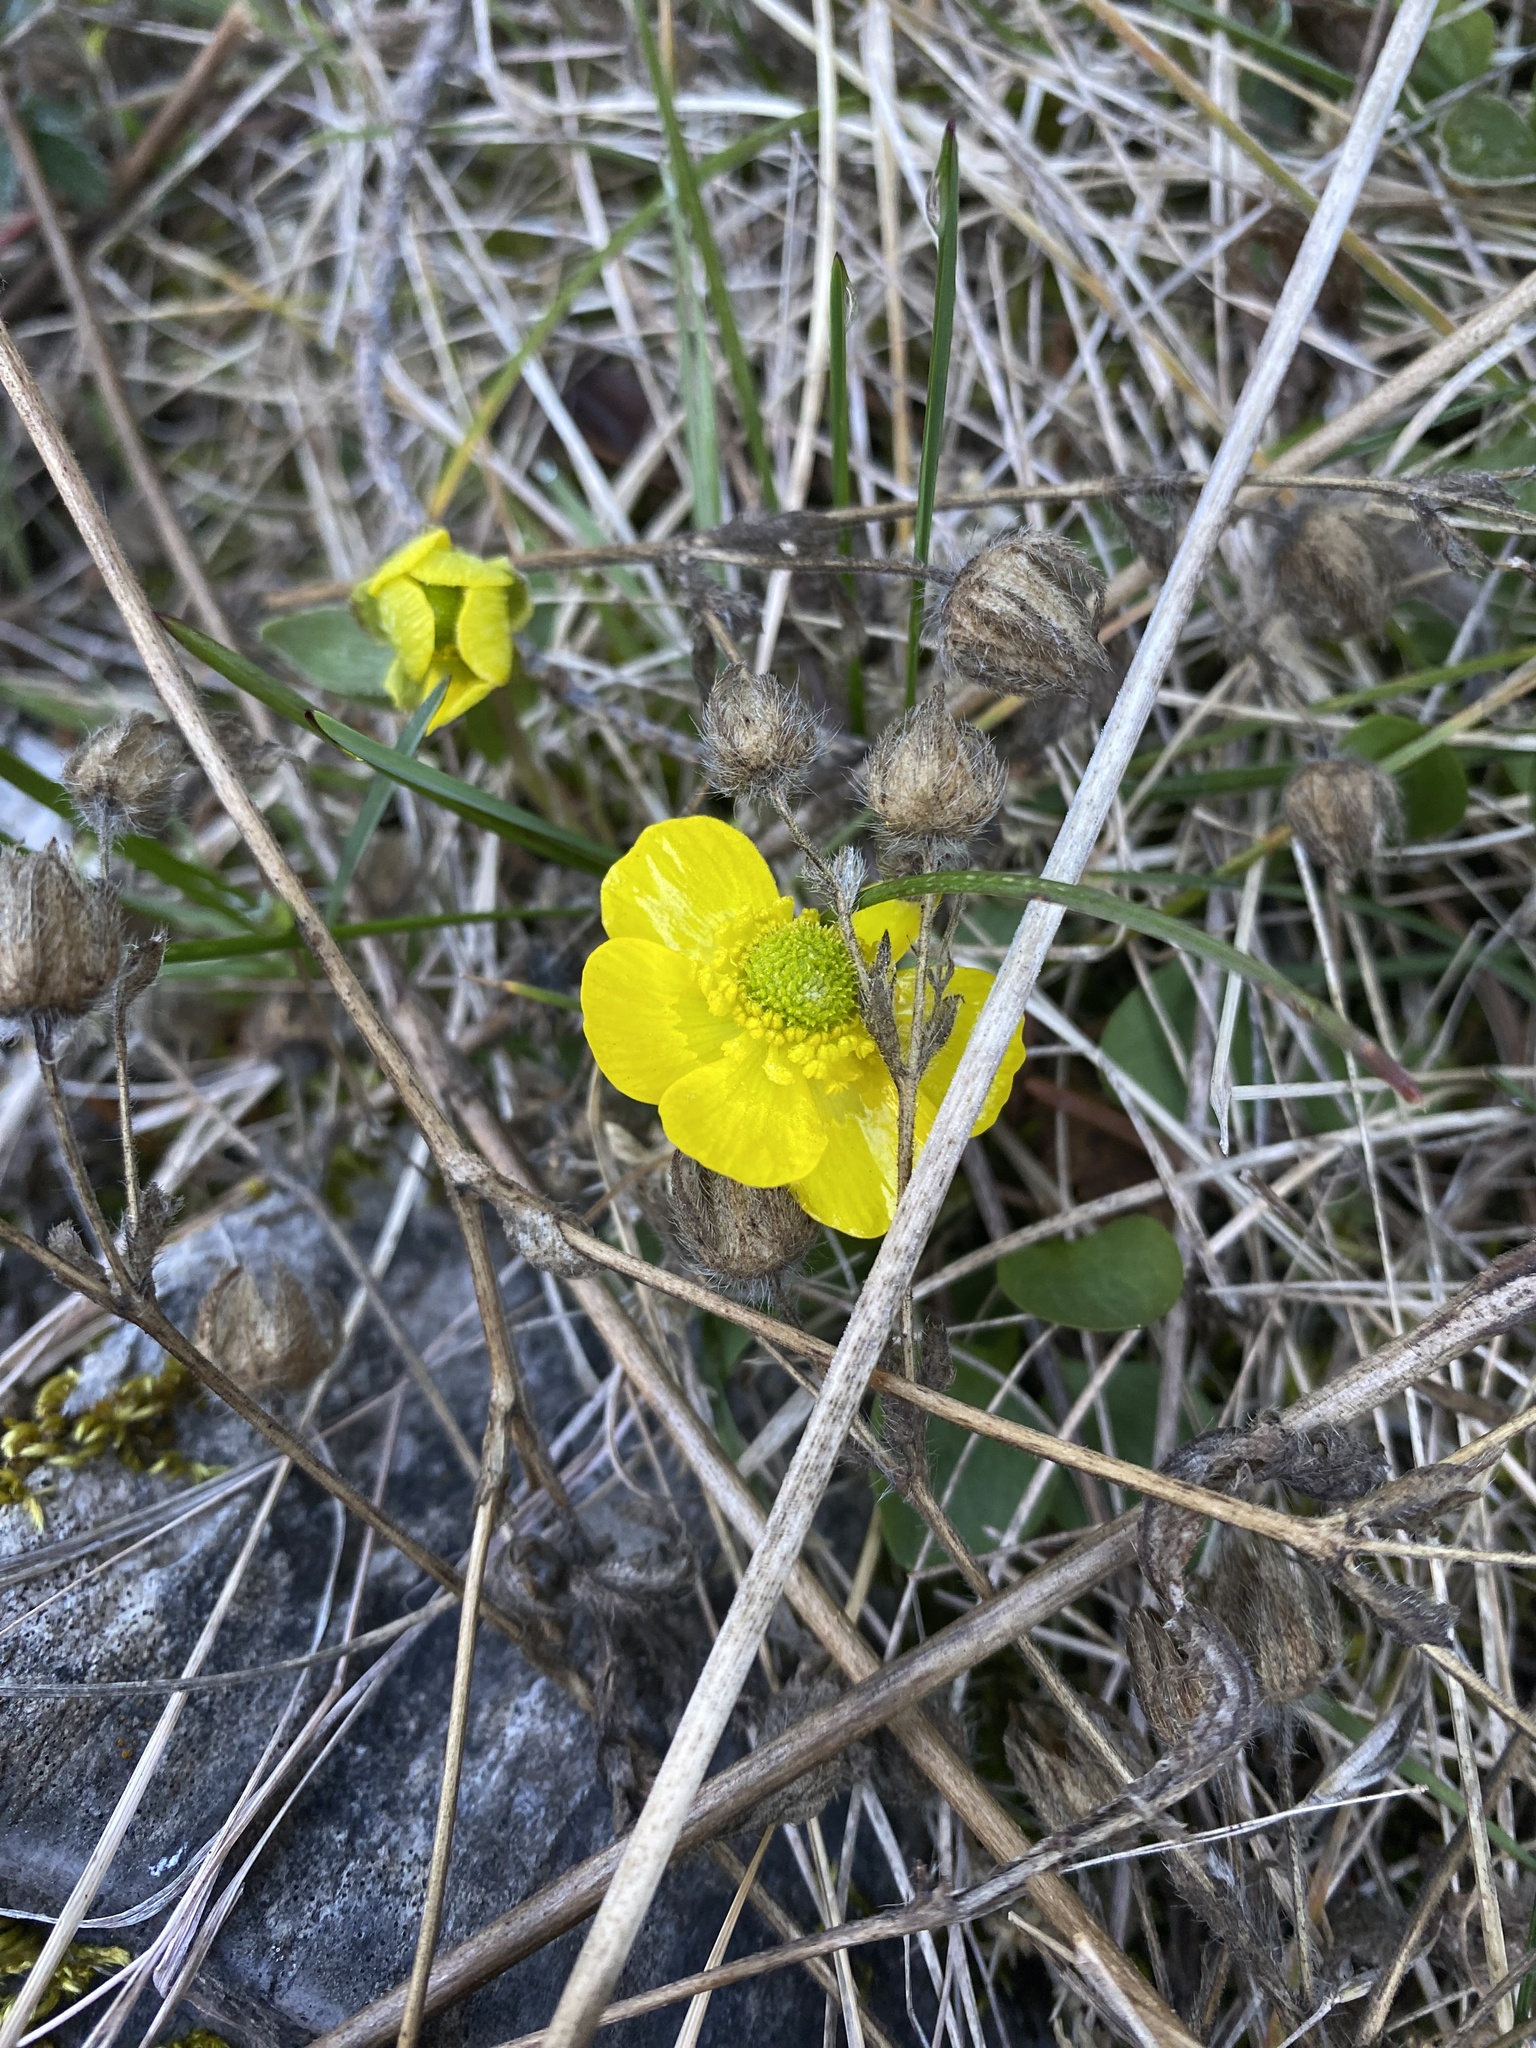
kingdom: Plantae
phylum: Tracheophyta
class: Magnoliopsida
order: Ranunculales
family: Ranunculaceae
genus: Ranunculus
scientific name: Ranunculus glaberrimus
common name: Sagebrush buttercup
